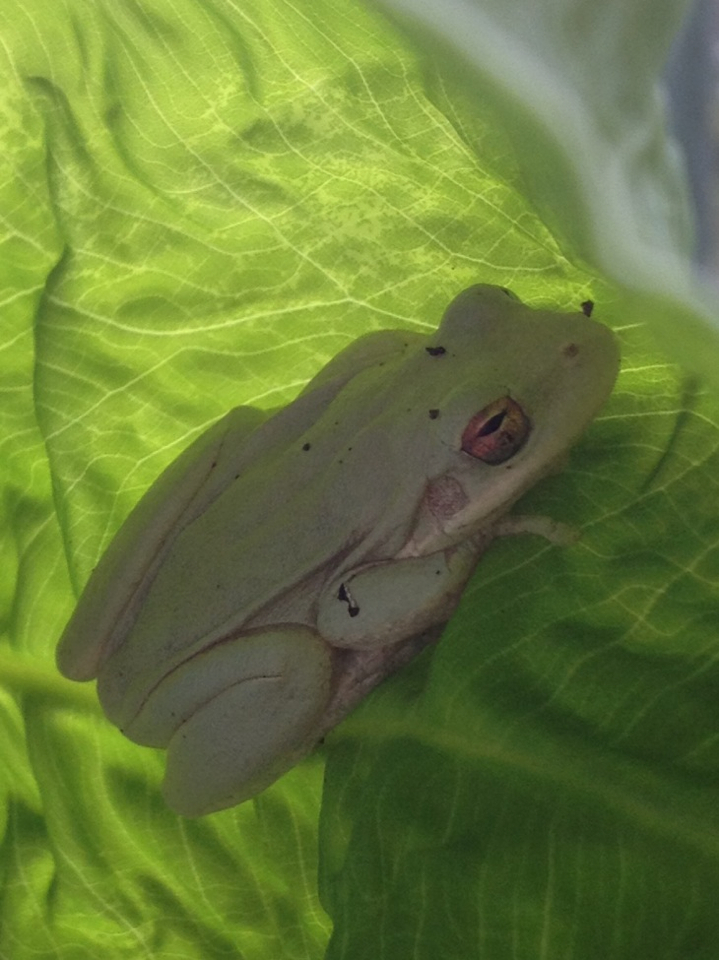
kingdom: Animalia
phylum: Chordata
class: Amphibia
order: Anura
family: Hylidae
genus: Dryophytes
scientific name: Dryophytes cinereus
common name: Green treefrog
